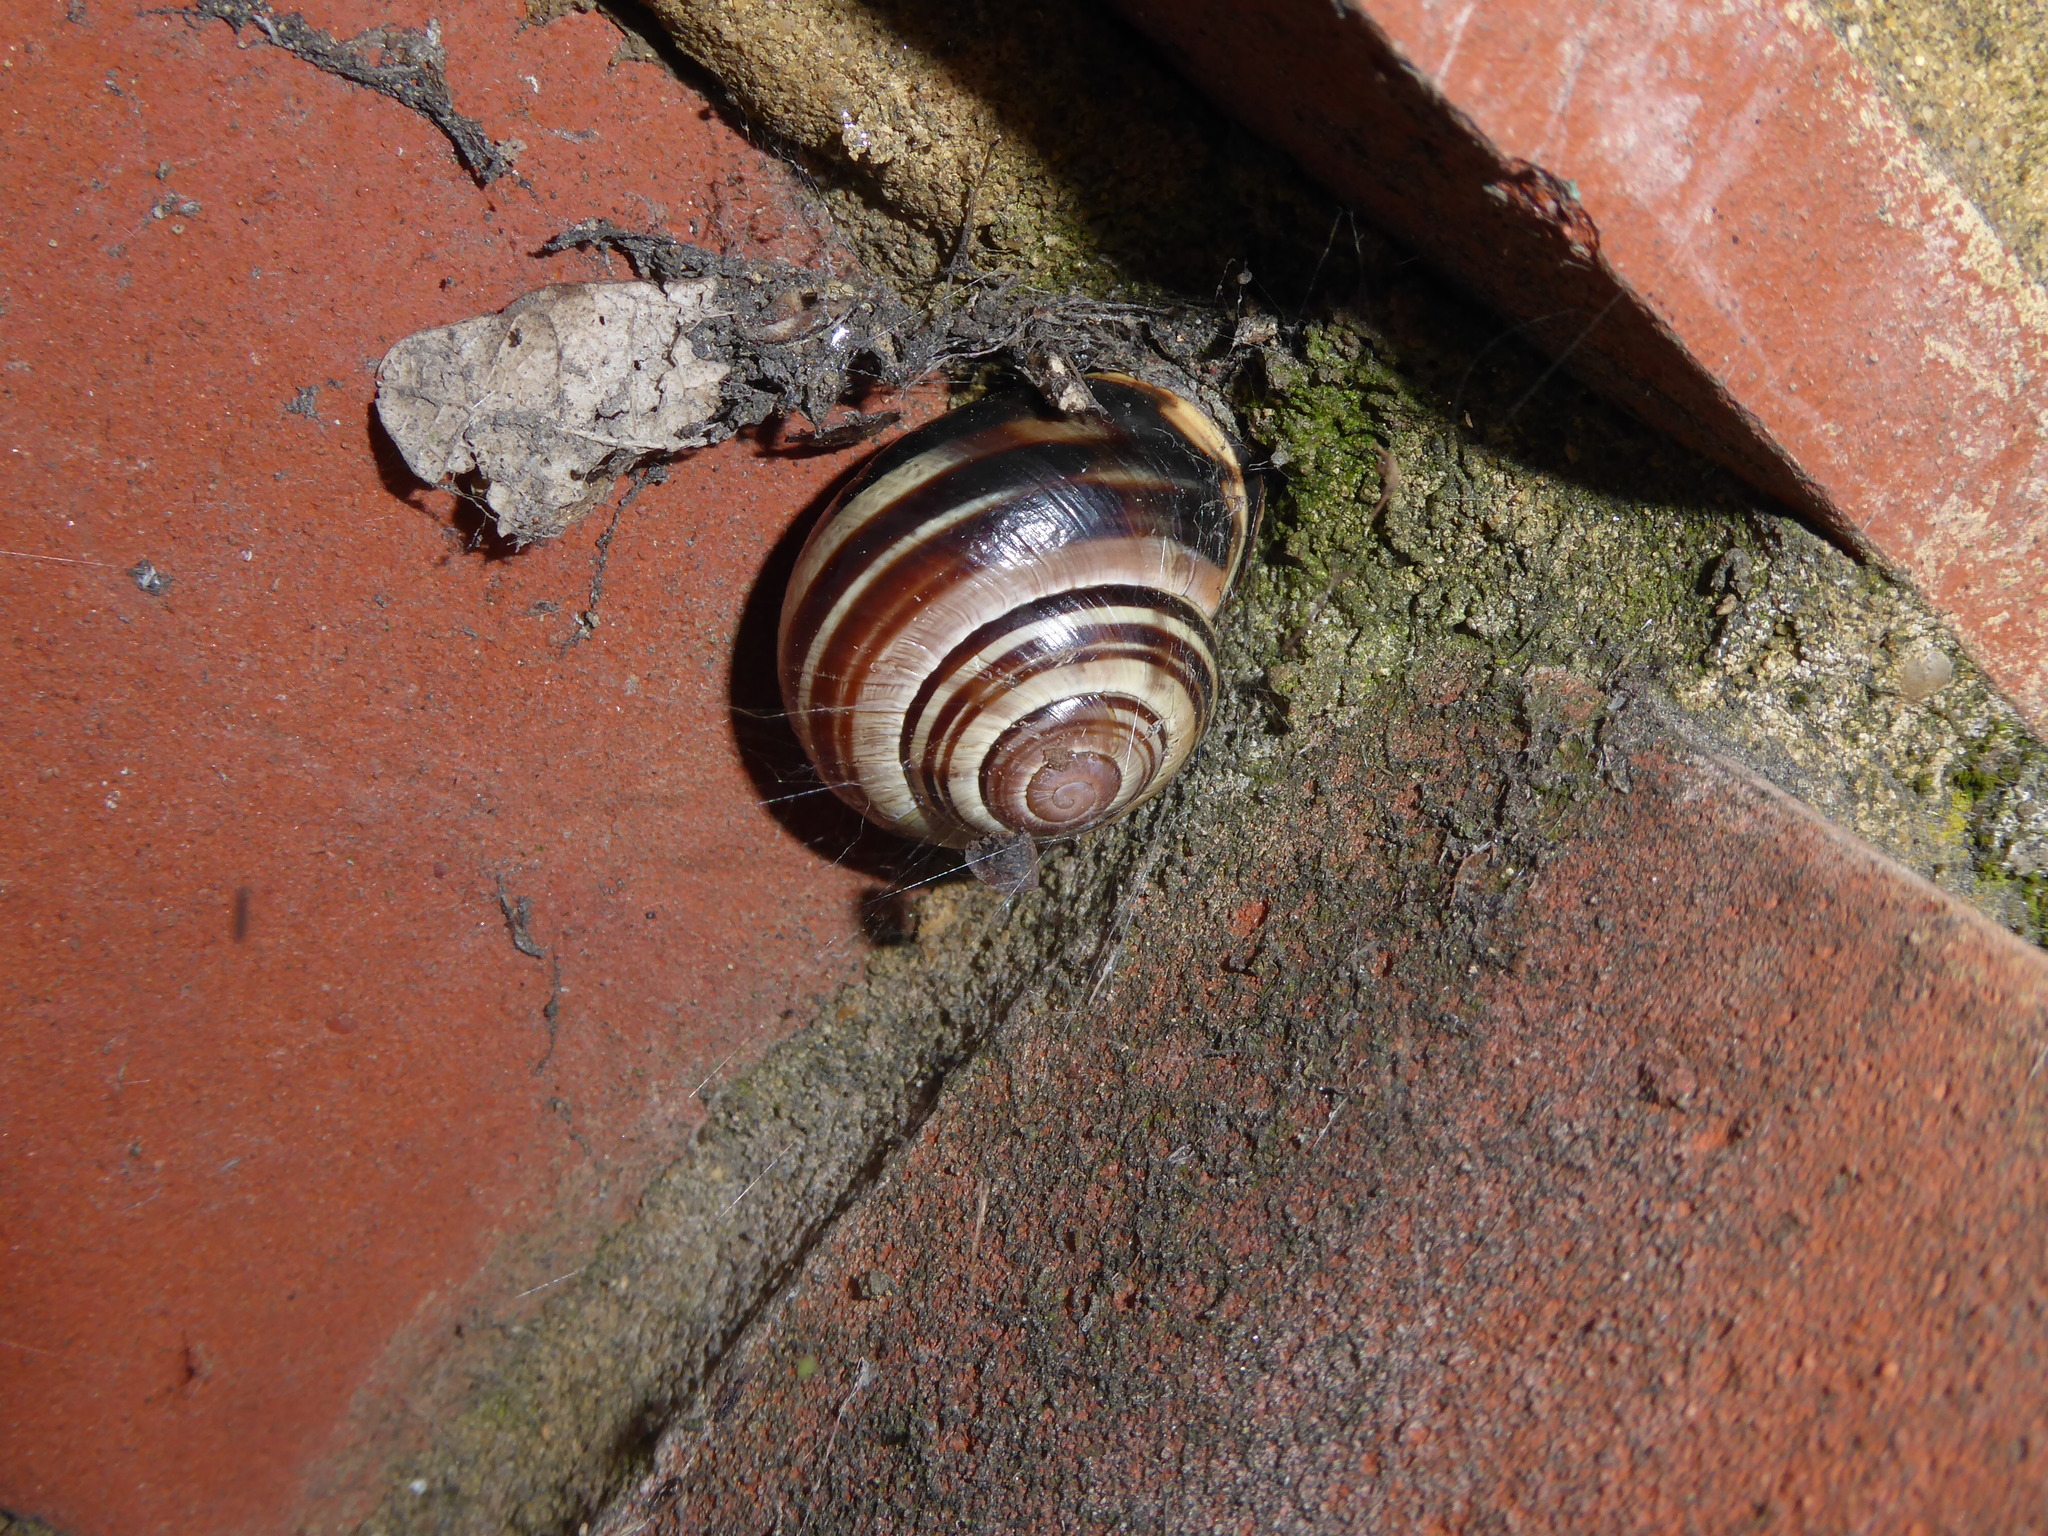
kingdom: Animalia
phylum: Mollusca
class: Gastropoda
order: Stylommatophora
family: Helicidae
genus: Cepaea
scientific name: Cepaea nemoralis
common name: Grovesnail
